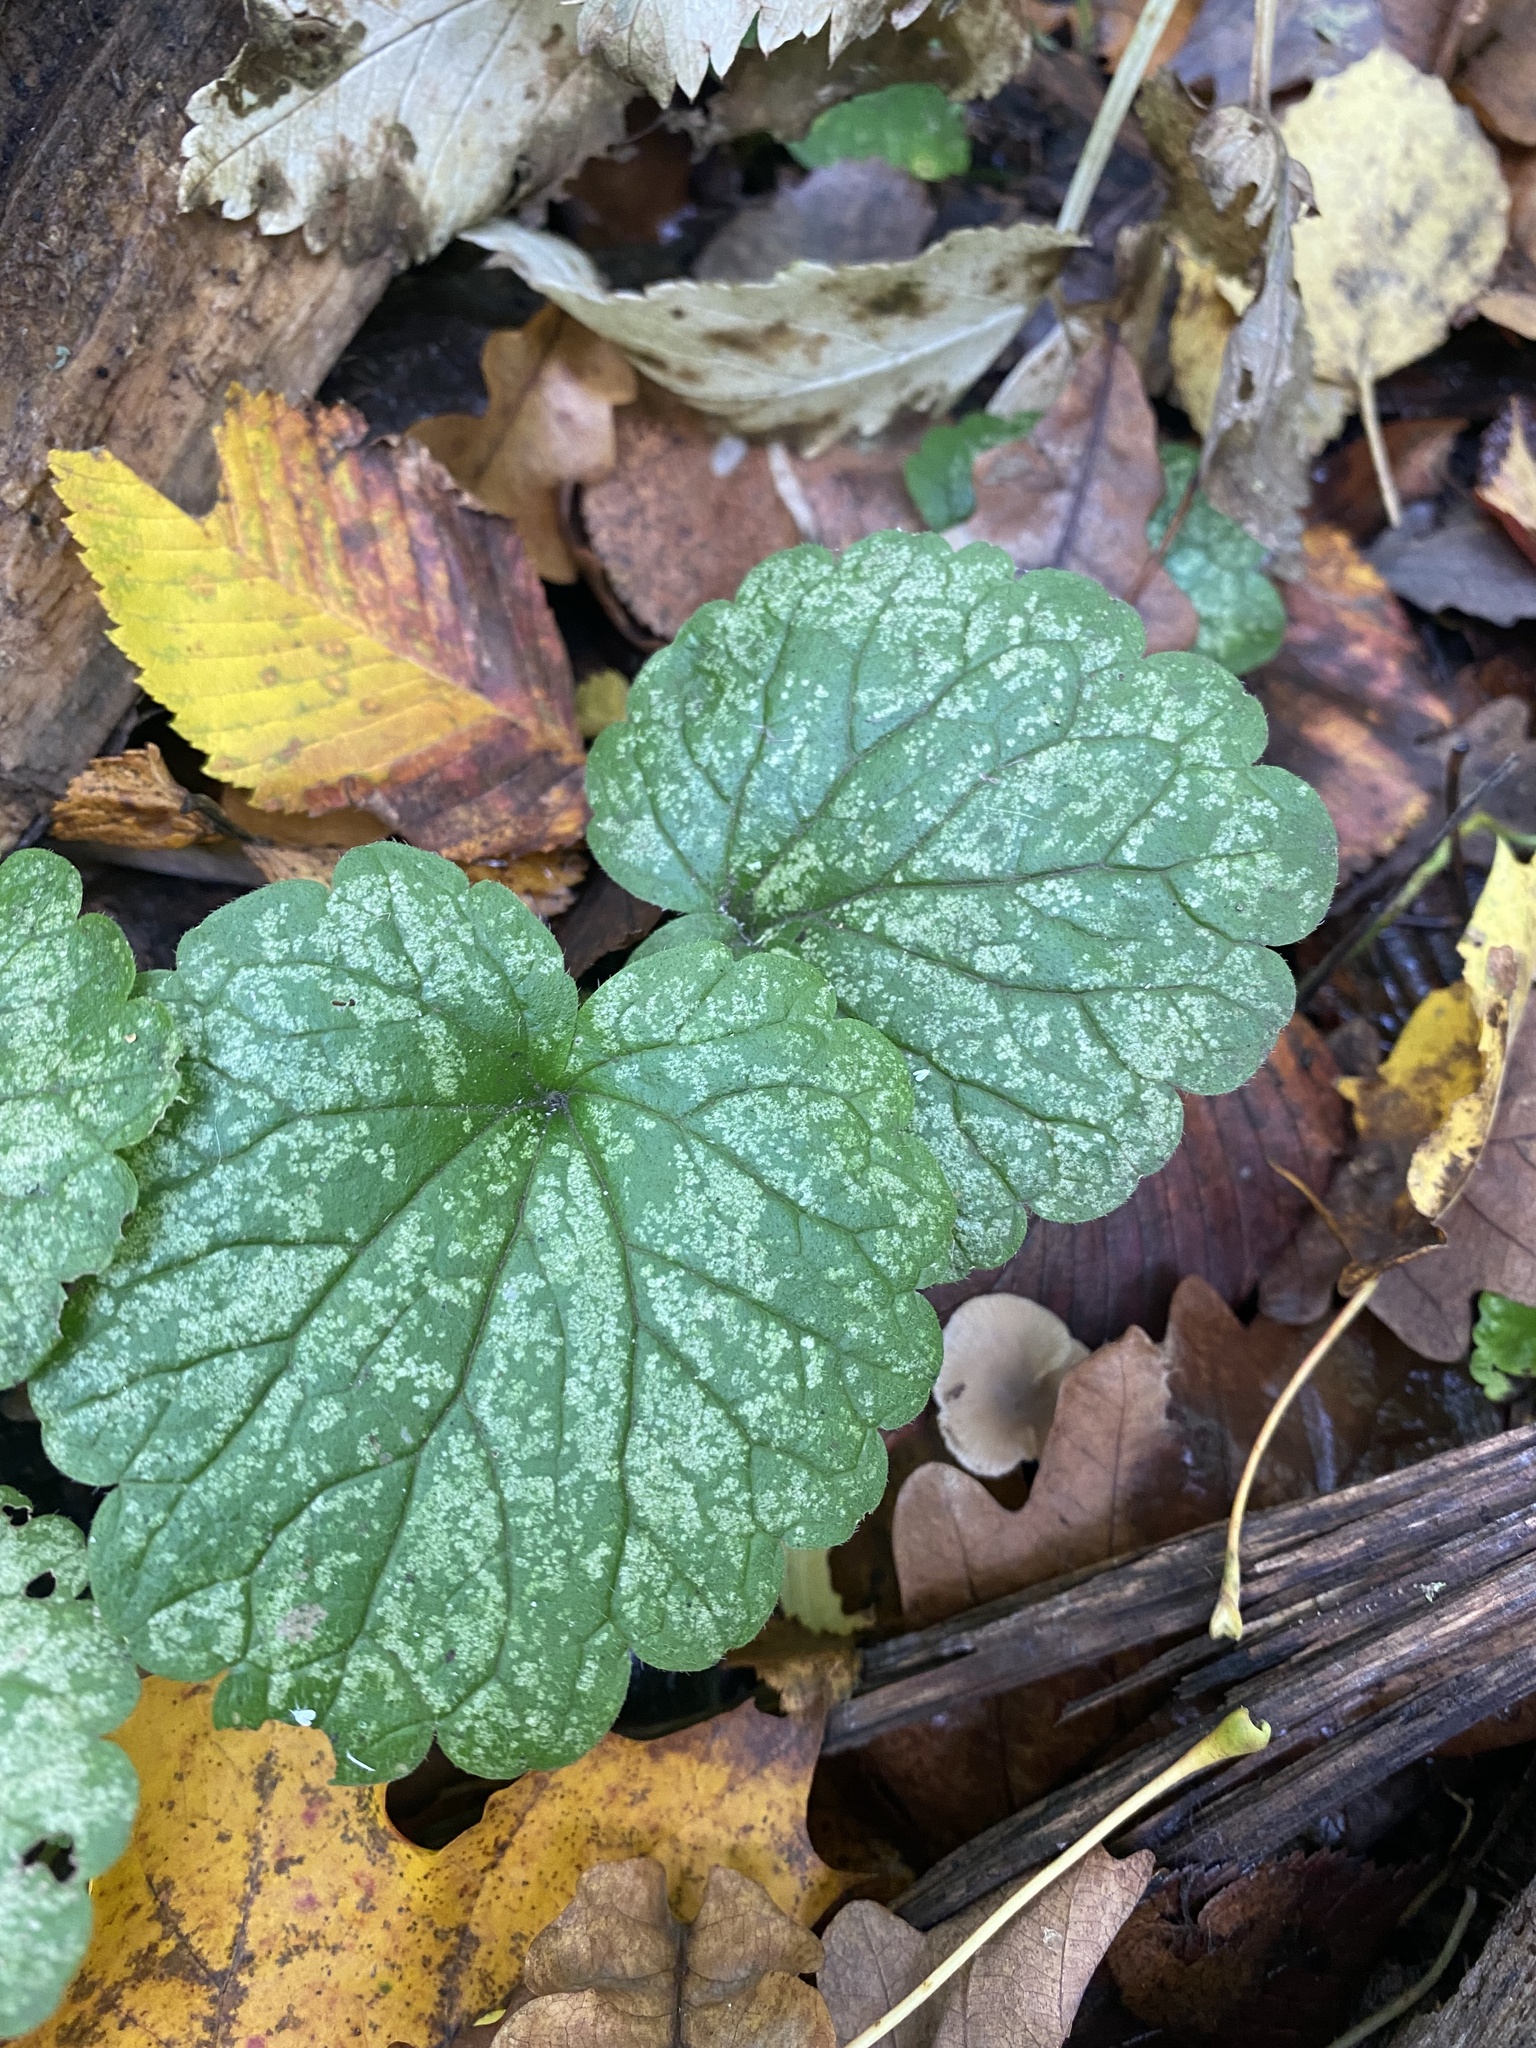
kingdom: Plantae
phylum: Tracheophyta
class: Magnoliopsida
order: Lamiales
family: Lamiaceae
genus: Glechoma
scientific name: Glechoma hederacea
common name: Ground ivy
